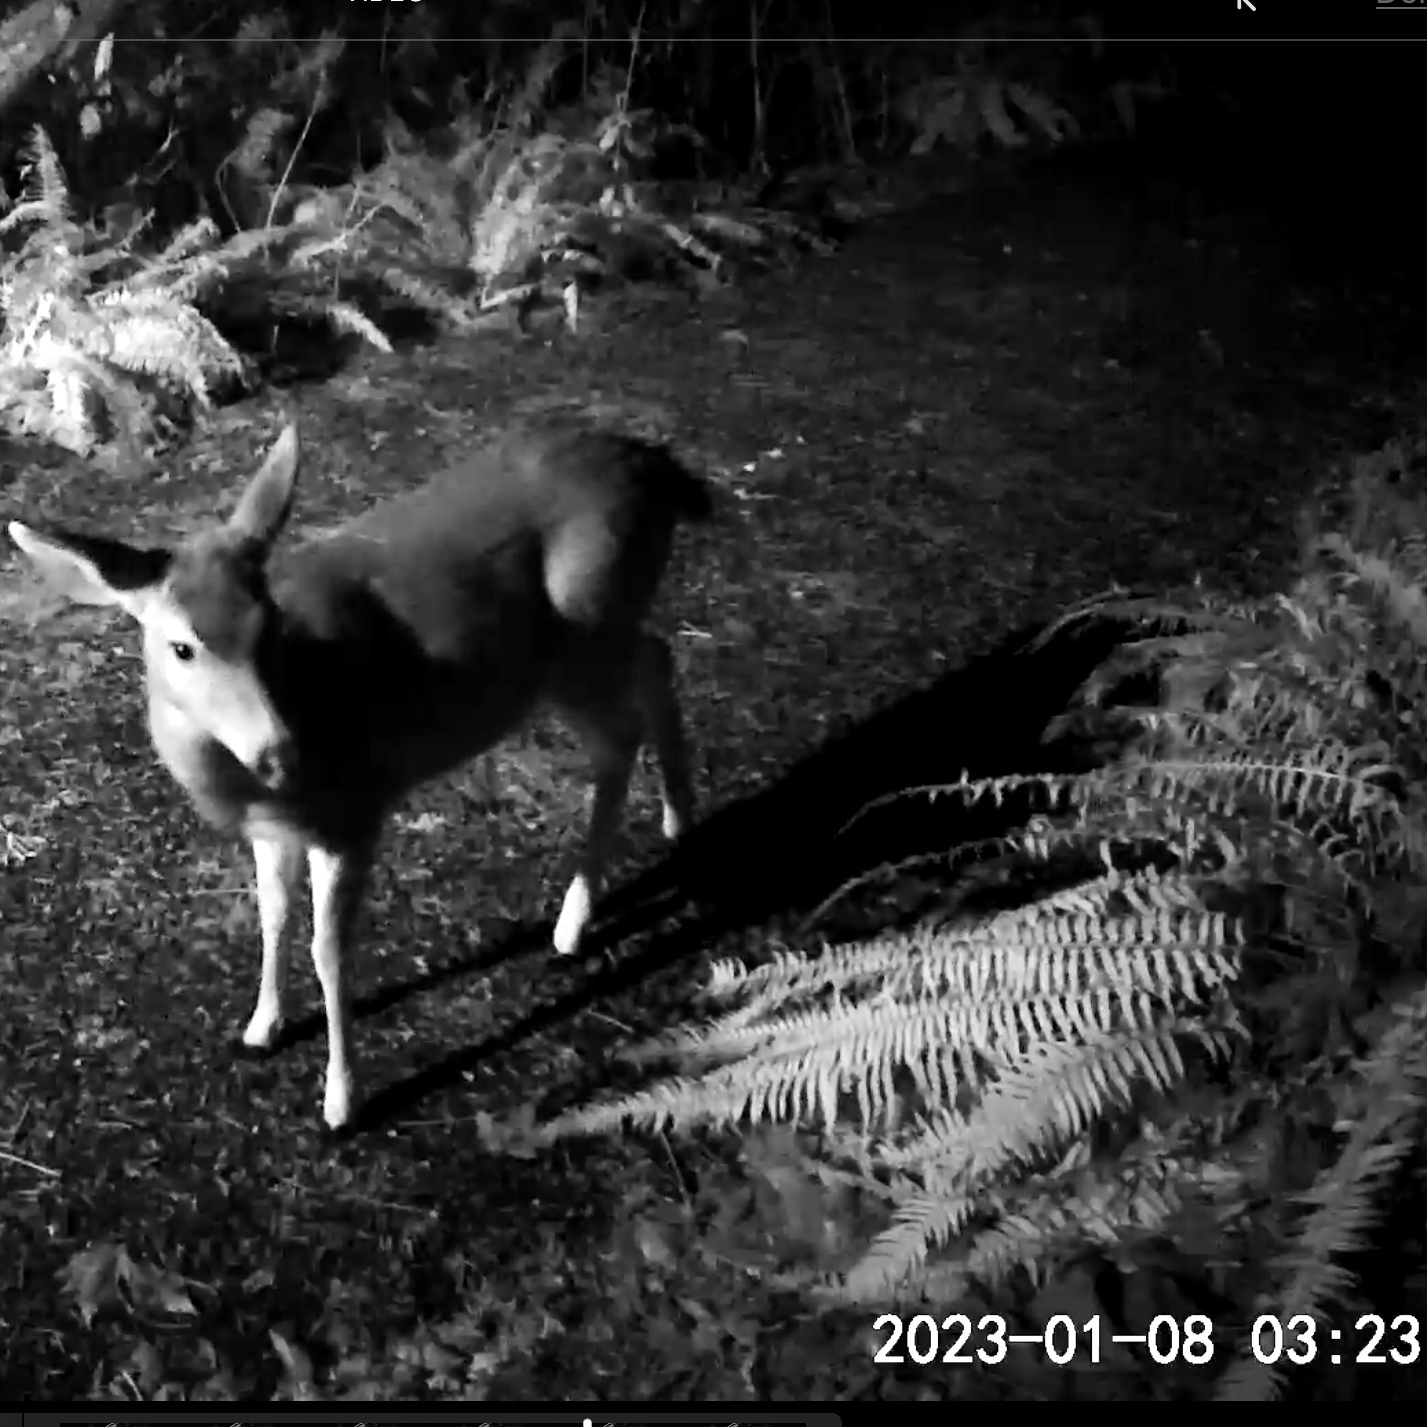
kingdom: Animalia
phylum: Chordata
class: Mammalia
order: Artiodactyla
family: Cervidae
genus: Odocoileus
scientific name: Odocoileus hemionus
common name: Mule deer
